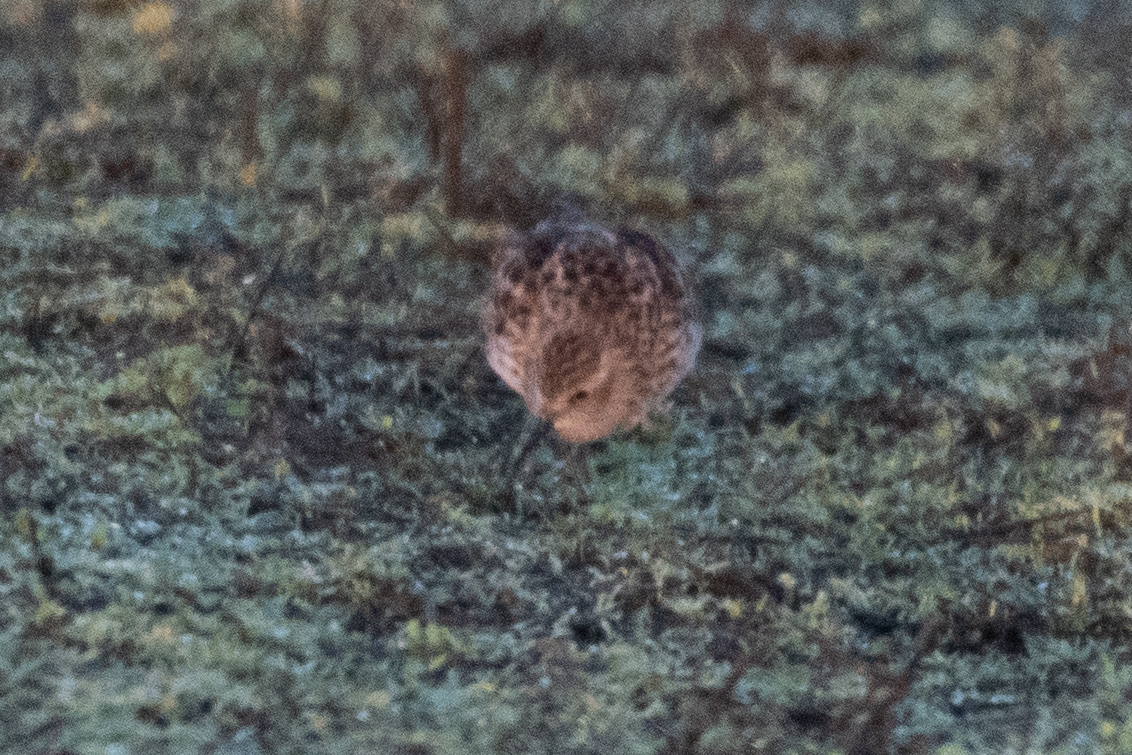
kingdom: Animalia
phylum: Chordata
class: Aves
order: Charadriiformes
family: Scolopacidae
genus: Calidris
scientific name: Calidris minutilla
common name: Least sandpiper
